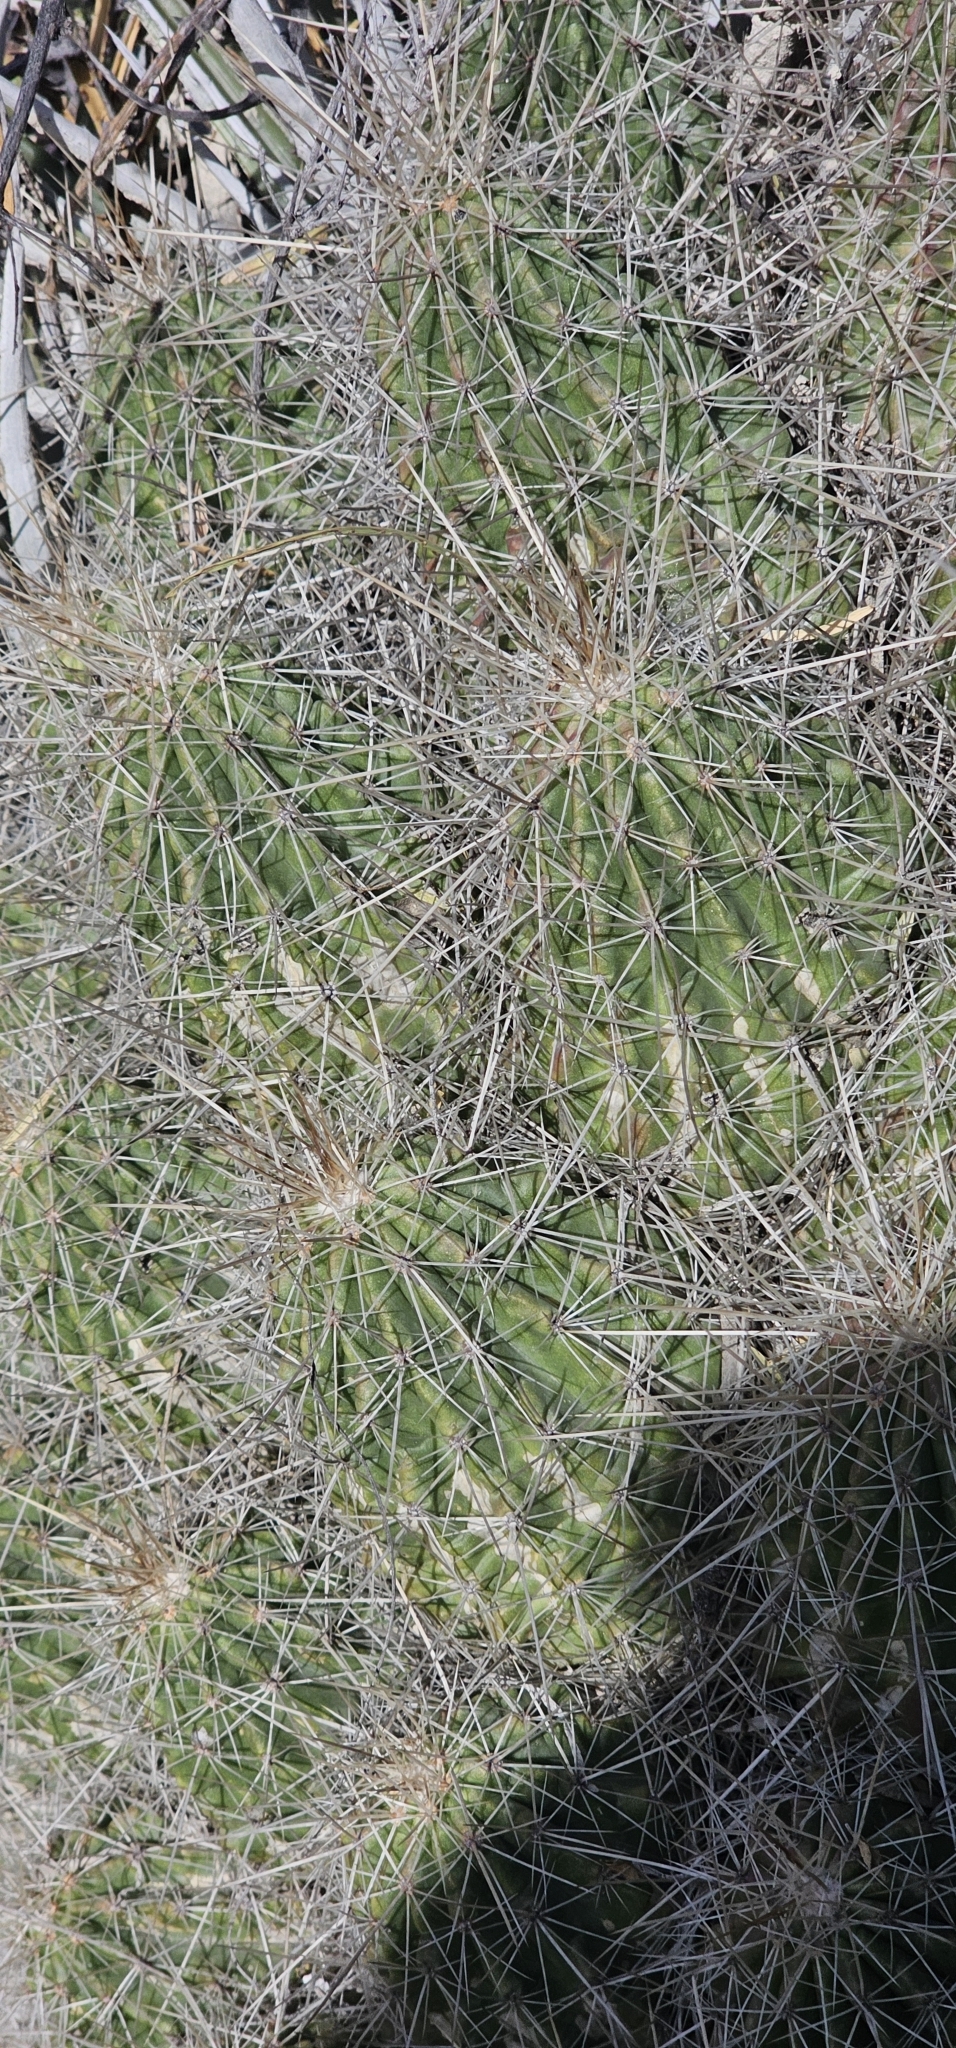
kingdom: Plantae
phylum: Tracheophyta
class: Magnoliopsida
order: Caryophyllales
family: Cactaceae
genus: Echinocereus
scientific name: Echinocereus stramineus
